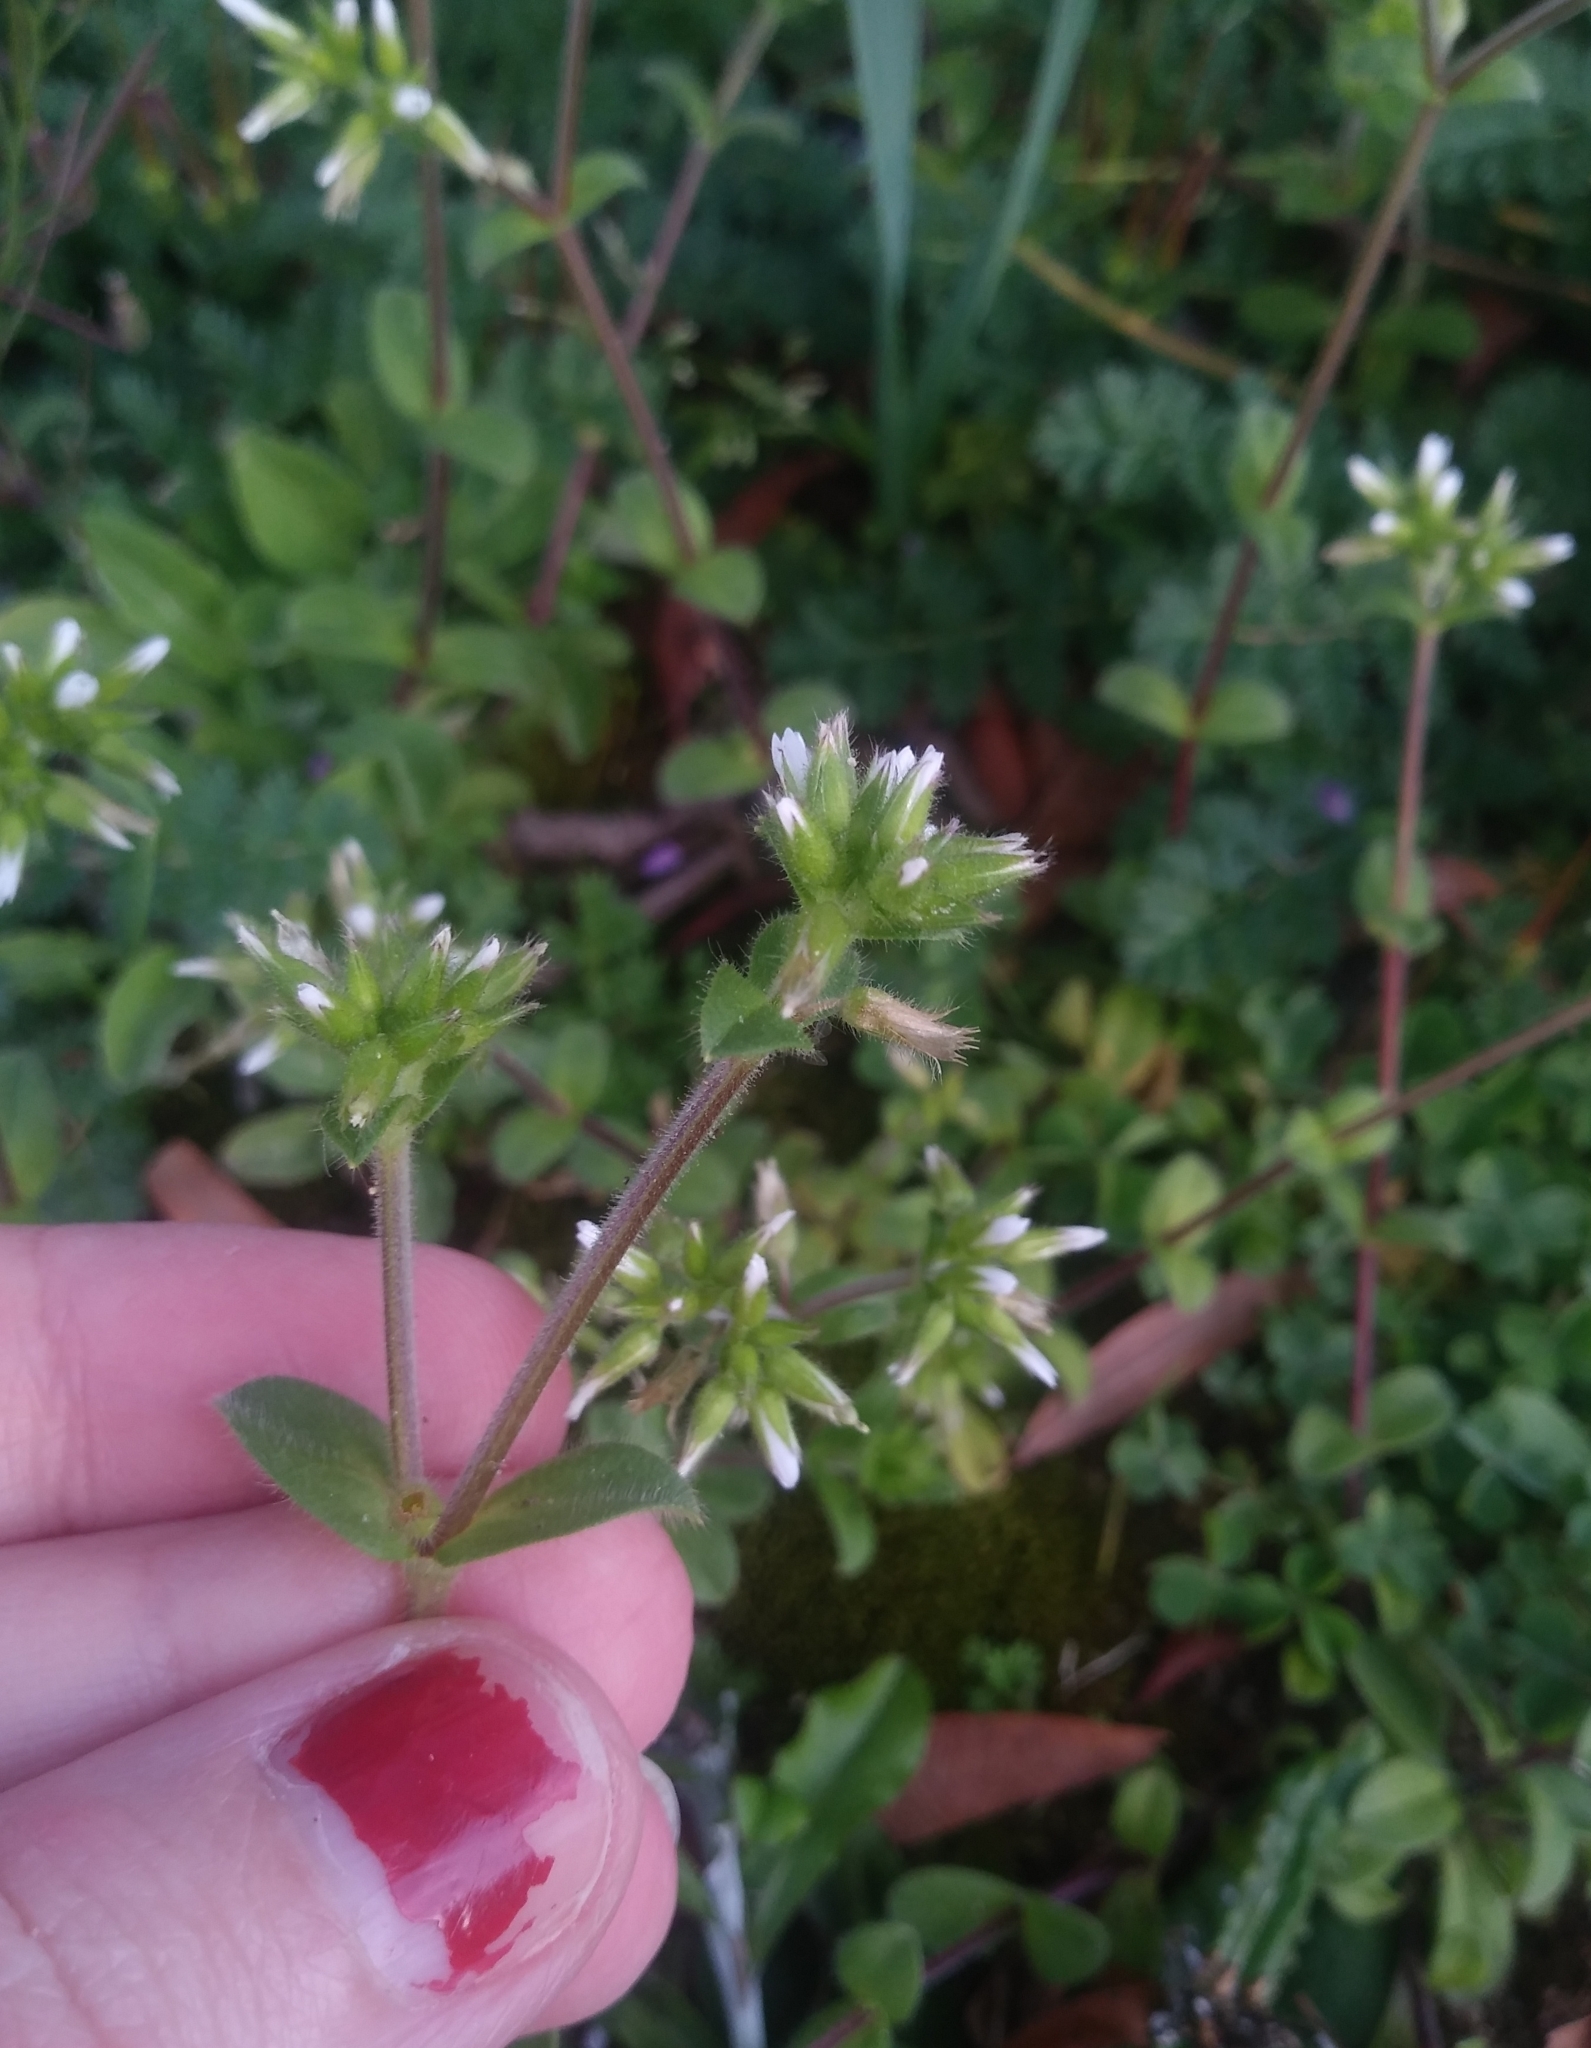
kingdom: Plantae
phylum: Tracheophyta
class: Magnoliopsida
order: Caryophyllales
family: Caryophyllaceae
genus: Cerastium
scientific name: Cerastium glomeratum
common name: Sticky chickweed
